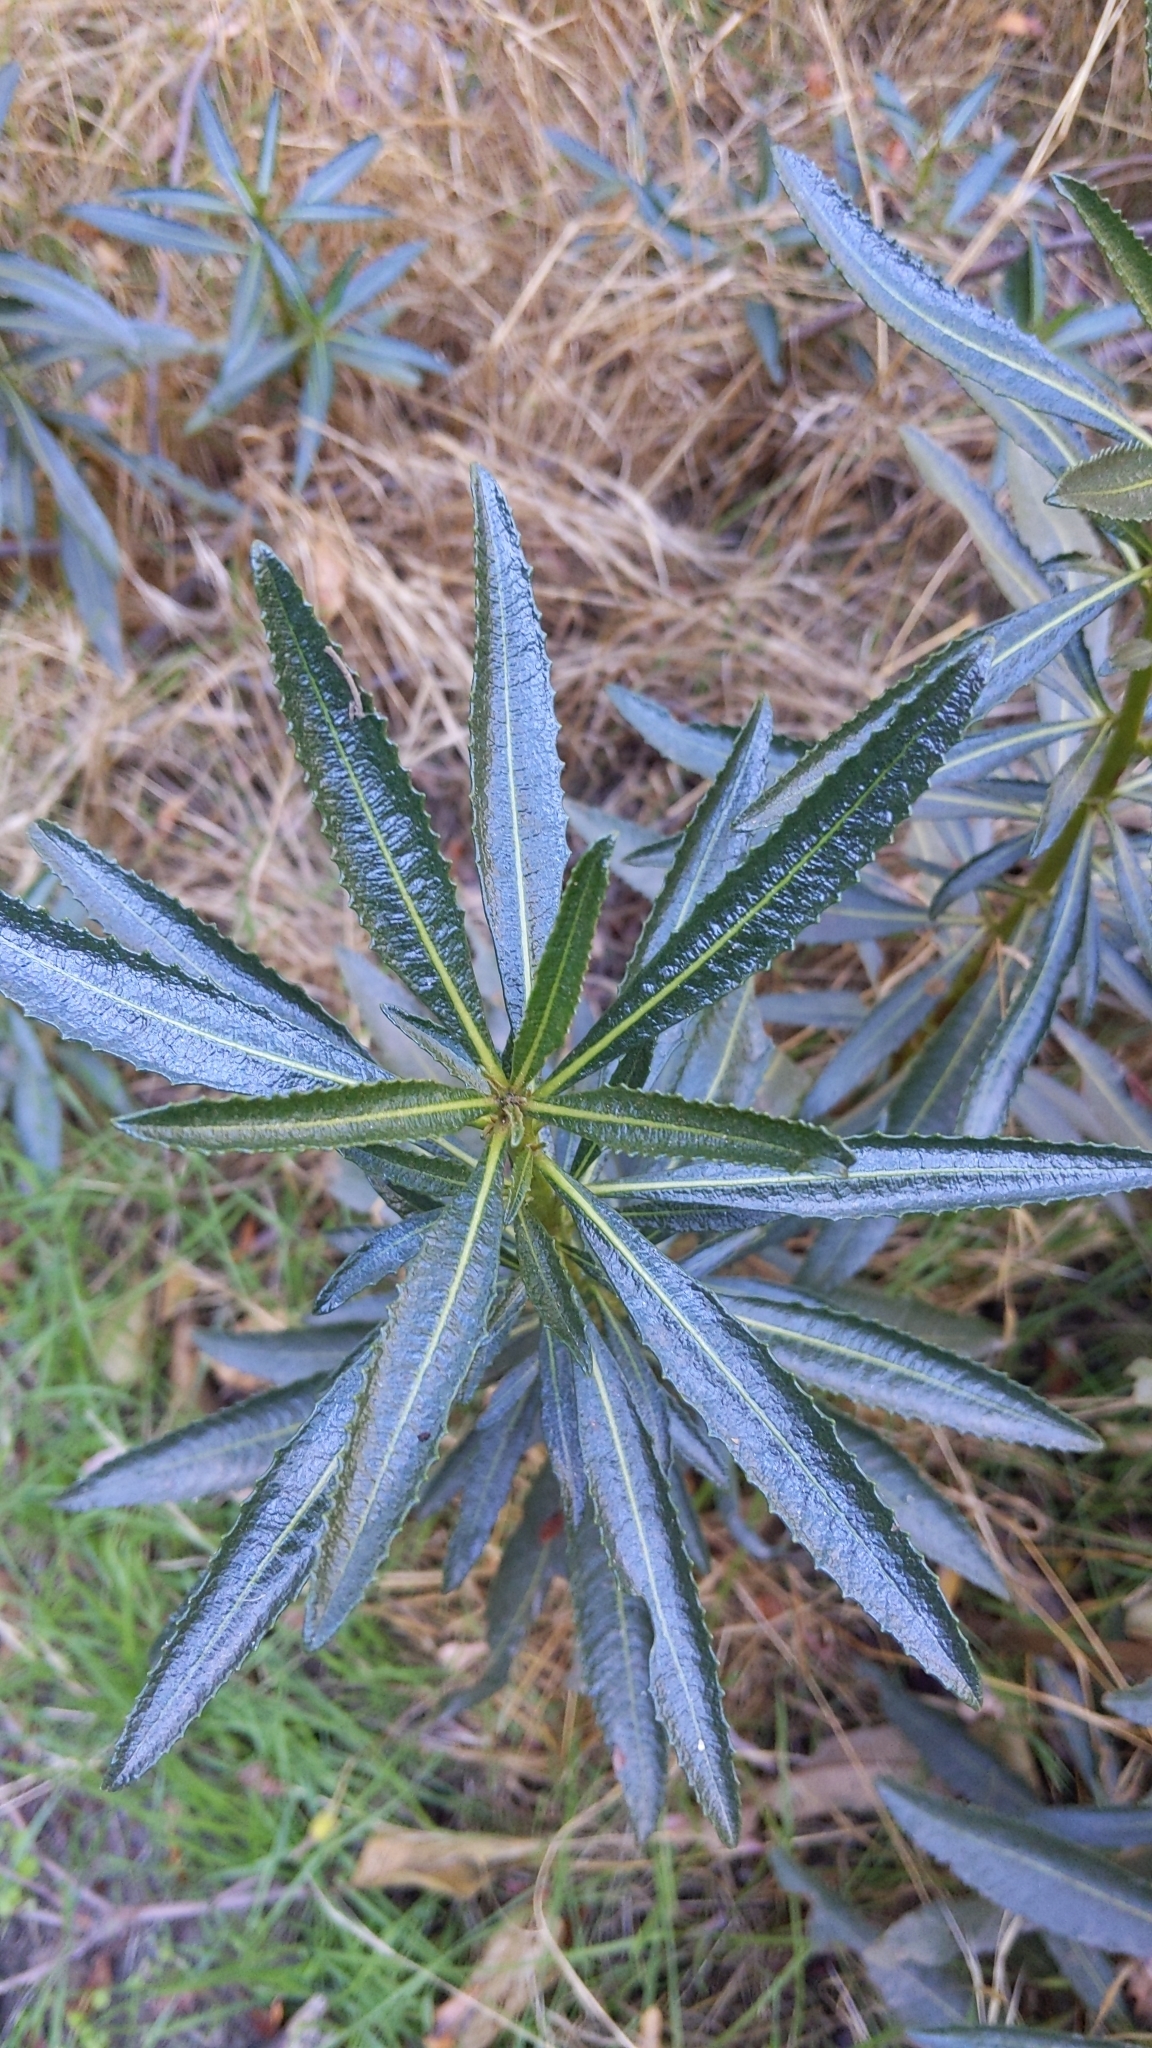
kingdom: Plantae
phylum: Tracheophyta
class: Magnoliopsida
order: Boraginales
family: Namaceae
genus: Eriodictyon
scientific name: Eriodictyon trichocalyx
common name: Hairy yerba-santa
